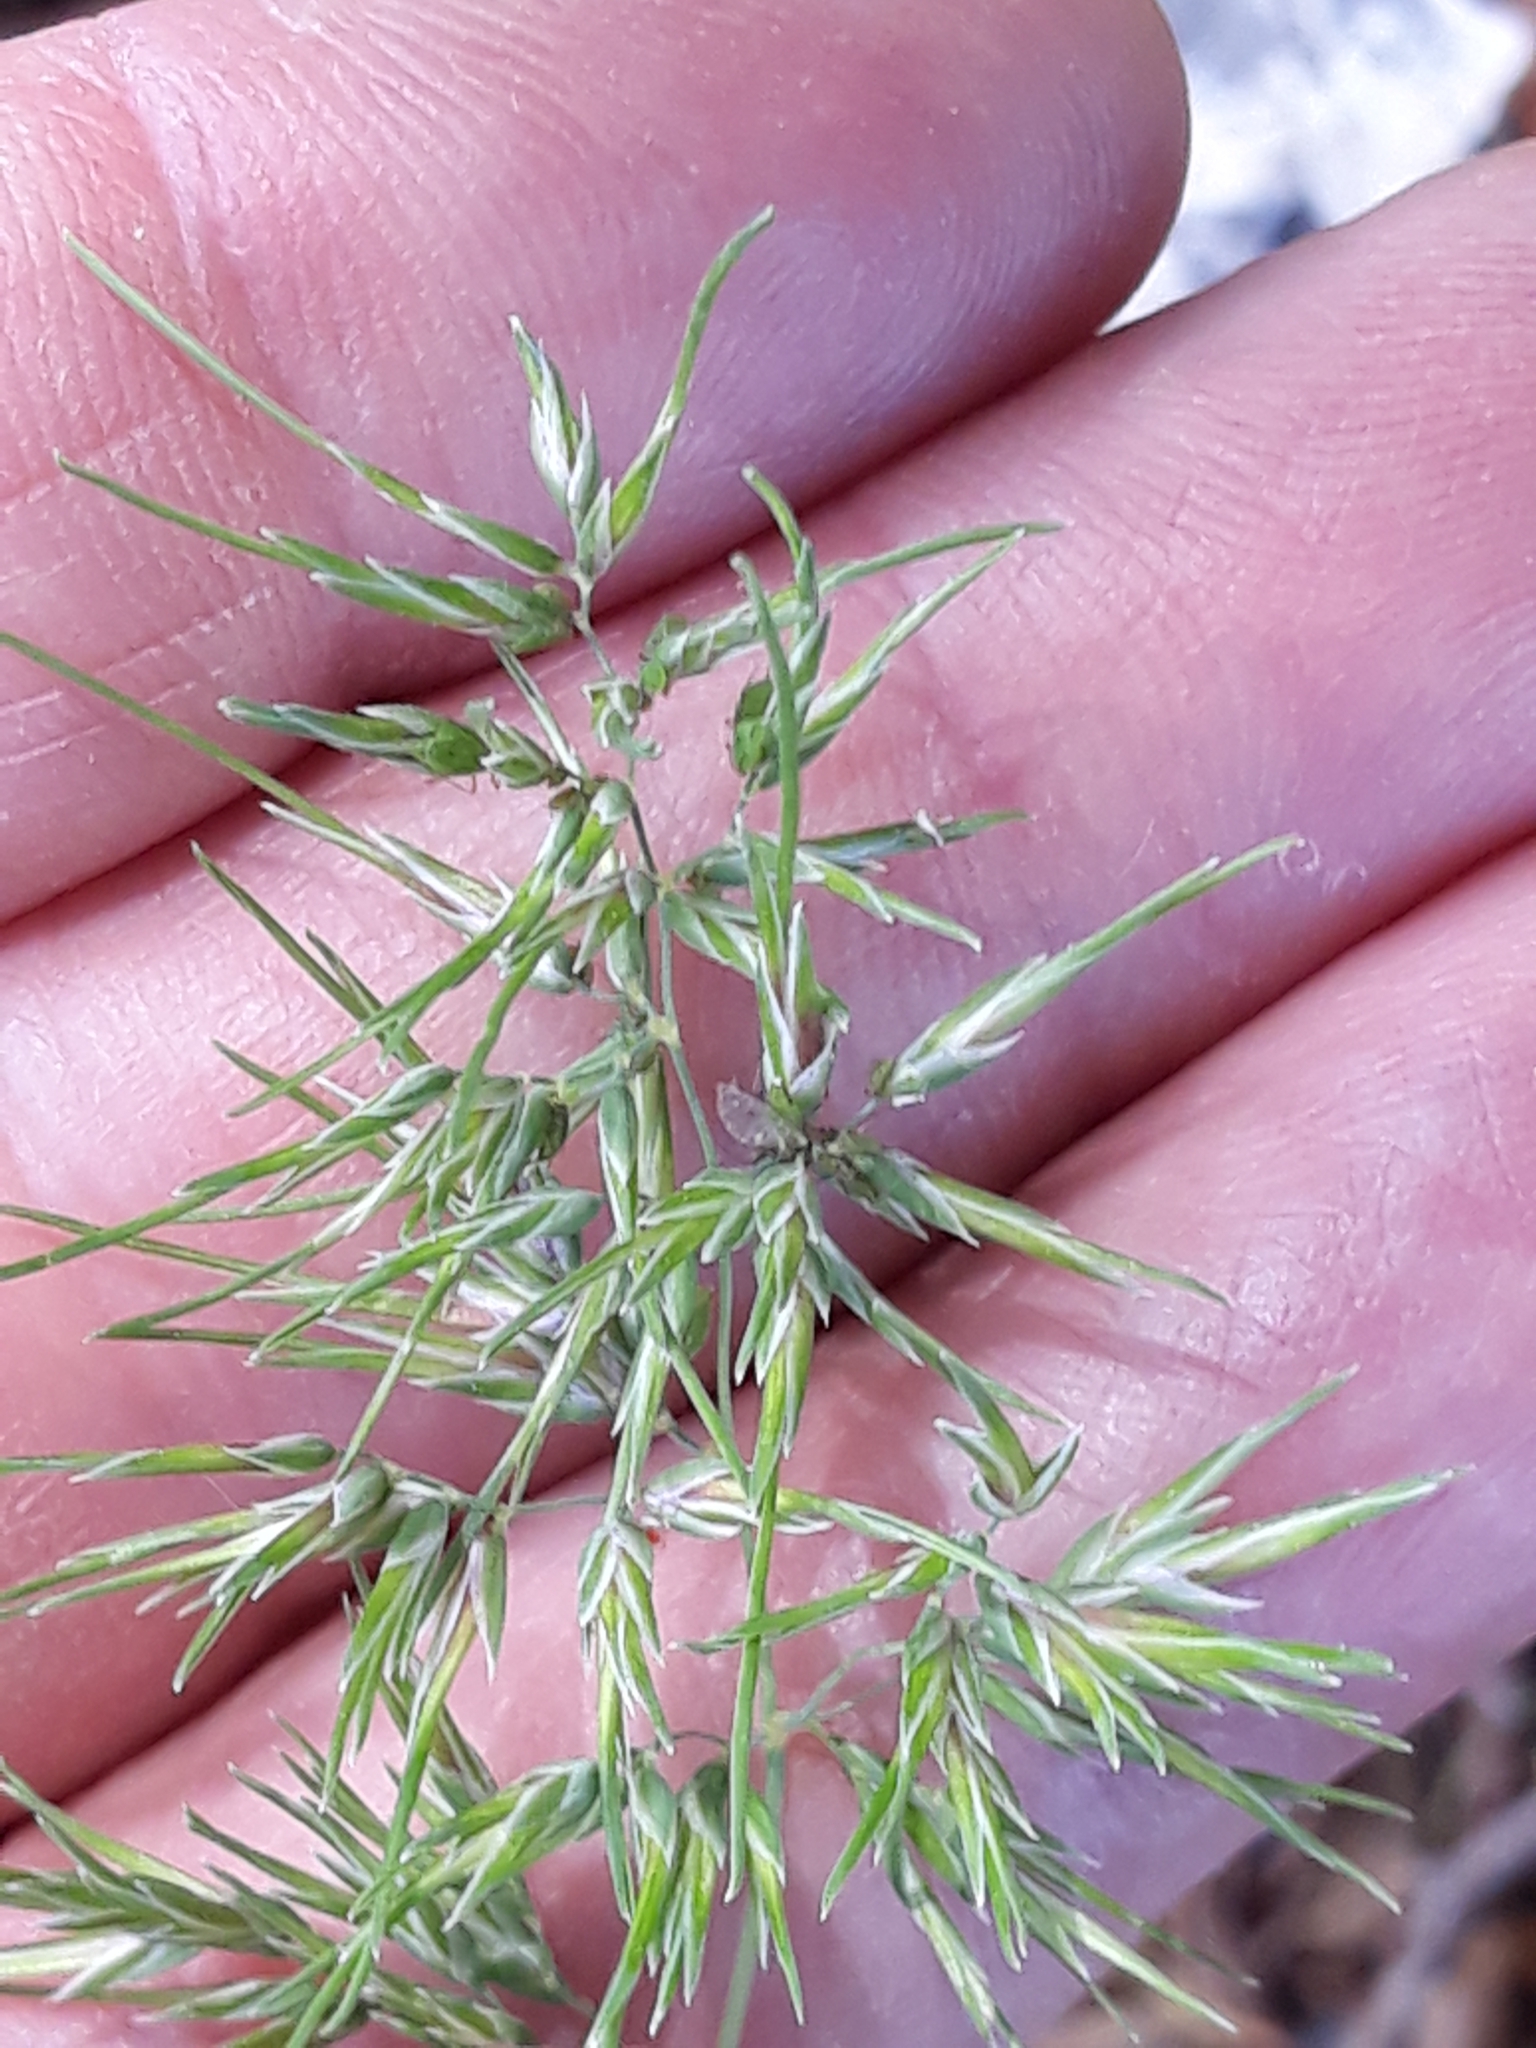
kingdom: Plantae
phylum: Tracheophyta
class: Liliopsida
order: Poales
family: Poaceae
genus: Poa
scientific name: Poa bulbosa
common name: Bulbous bluegrass
